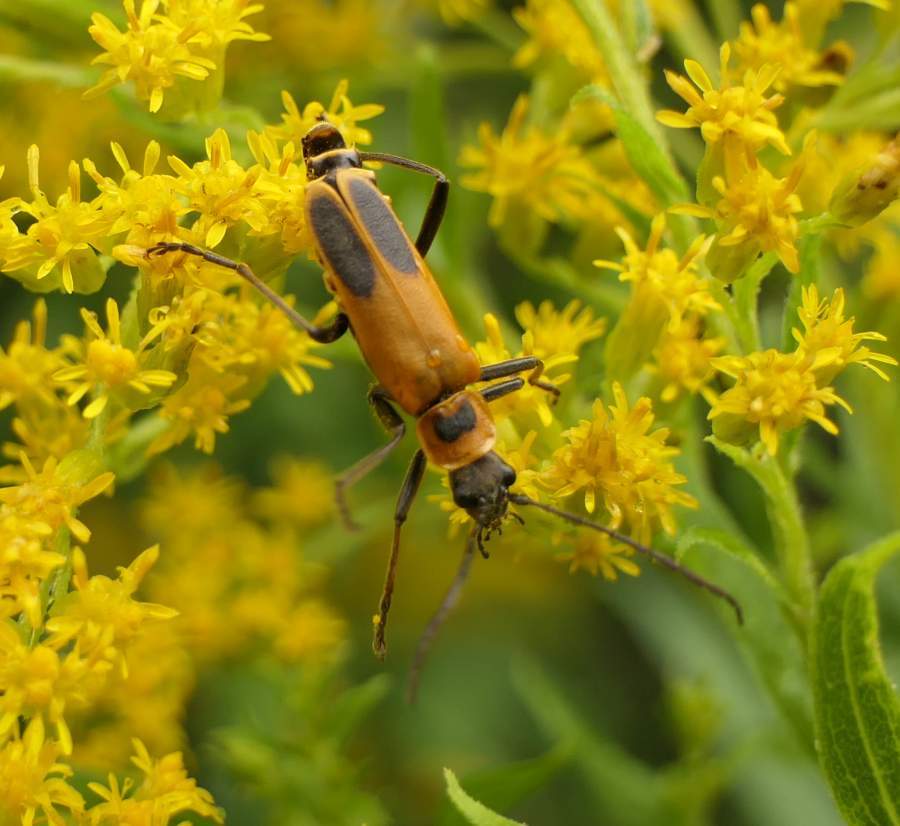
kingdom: Animalia
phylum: Arthropoda
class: Insecta
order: Coleoptera
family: Cantharidae
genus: Chauliognathus
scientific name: Chauliognathus pensylvanicus
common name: Goldenrod soldier beetle
